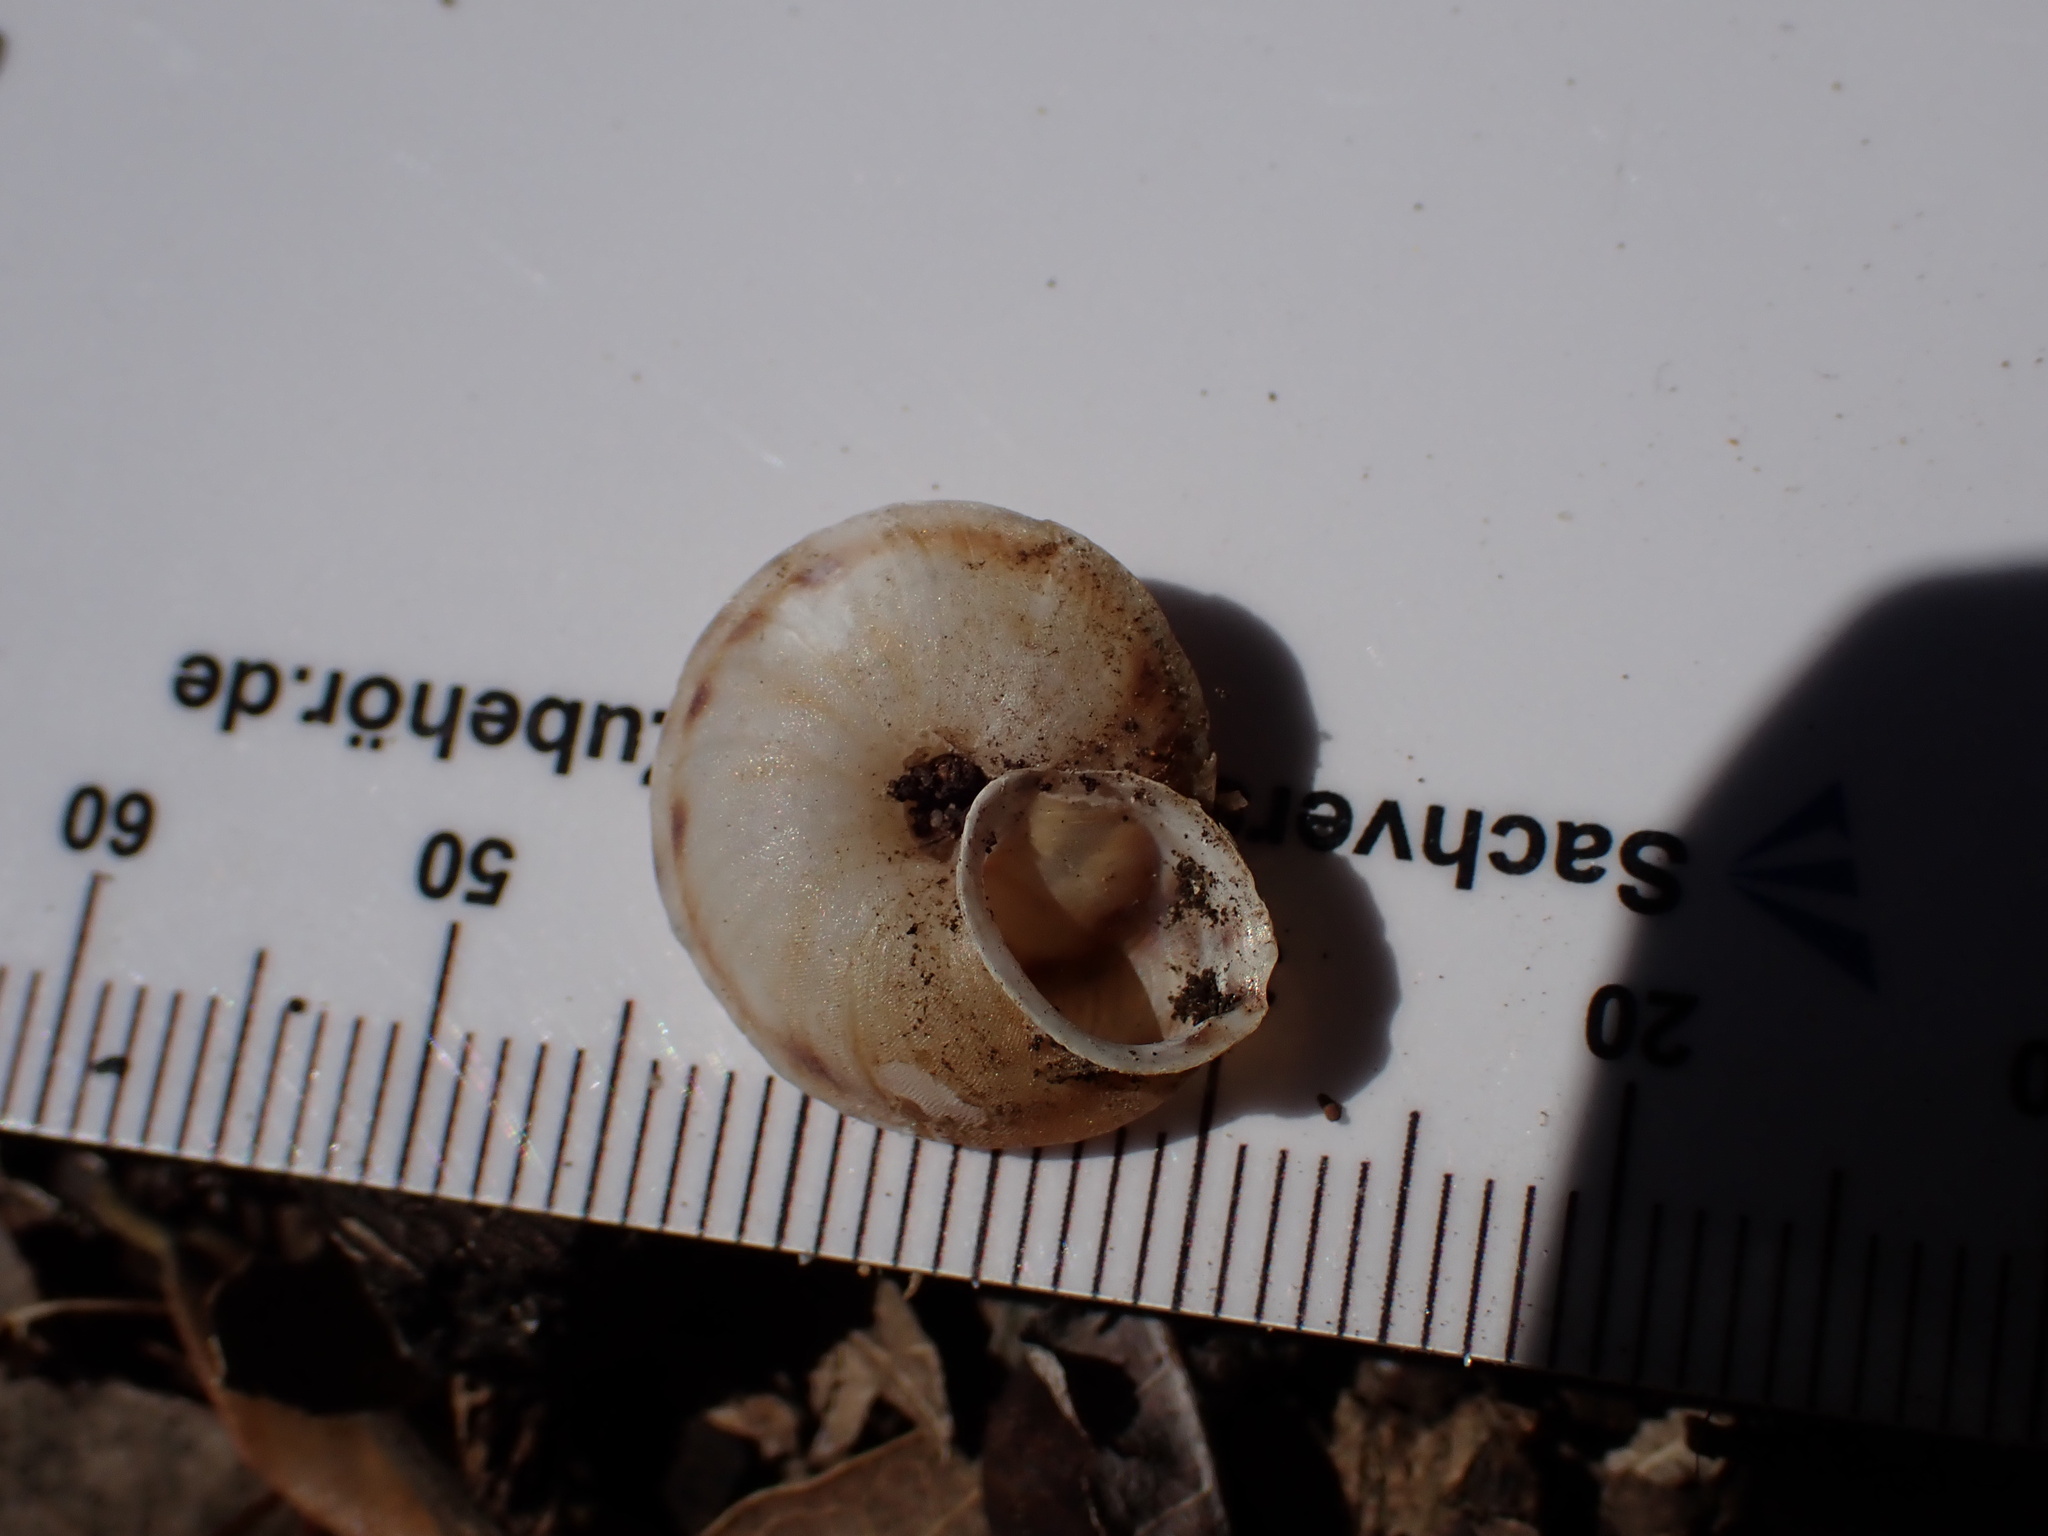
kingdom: Animalia
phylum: Mollusca
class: Gastropoda
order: Stylommatophora
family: Helicidae
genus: Helicigona
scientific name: Helicigona lapicida
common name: Lapidary snail
